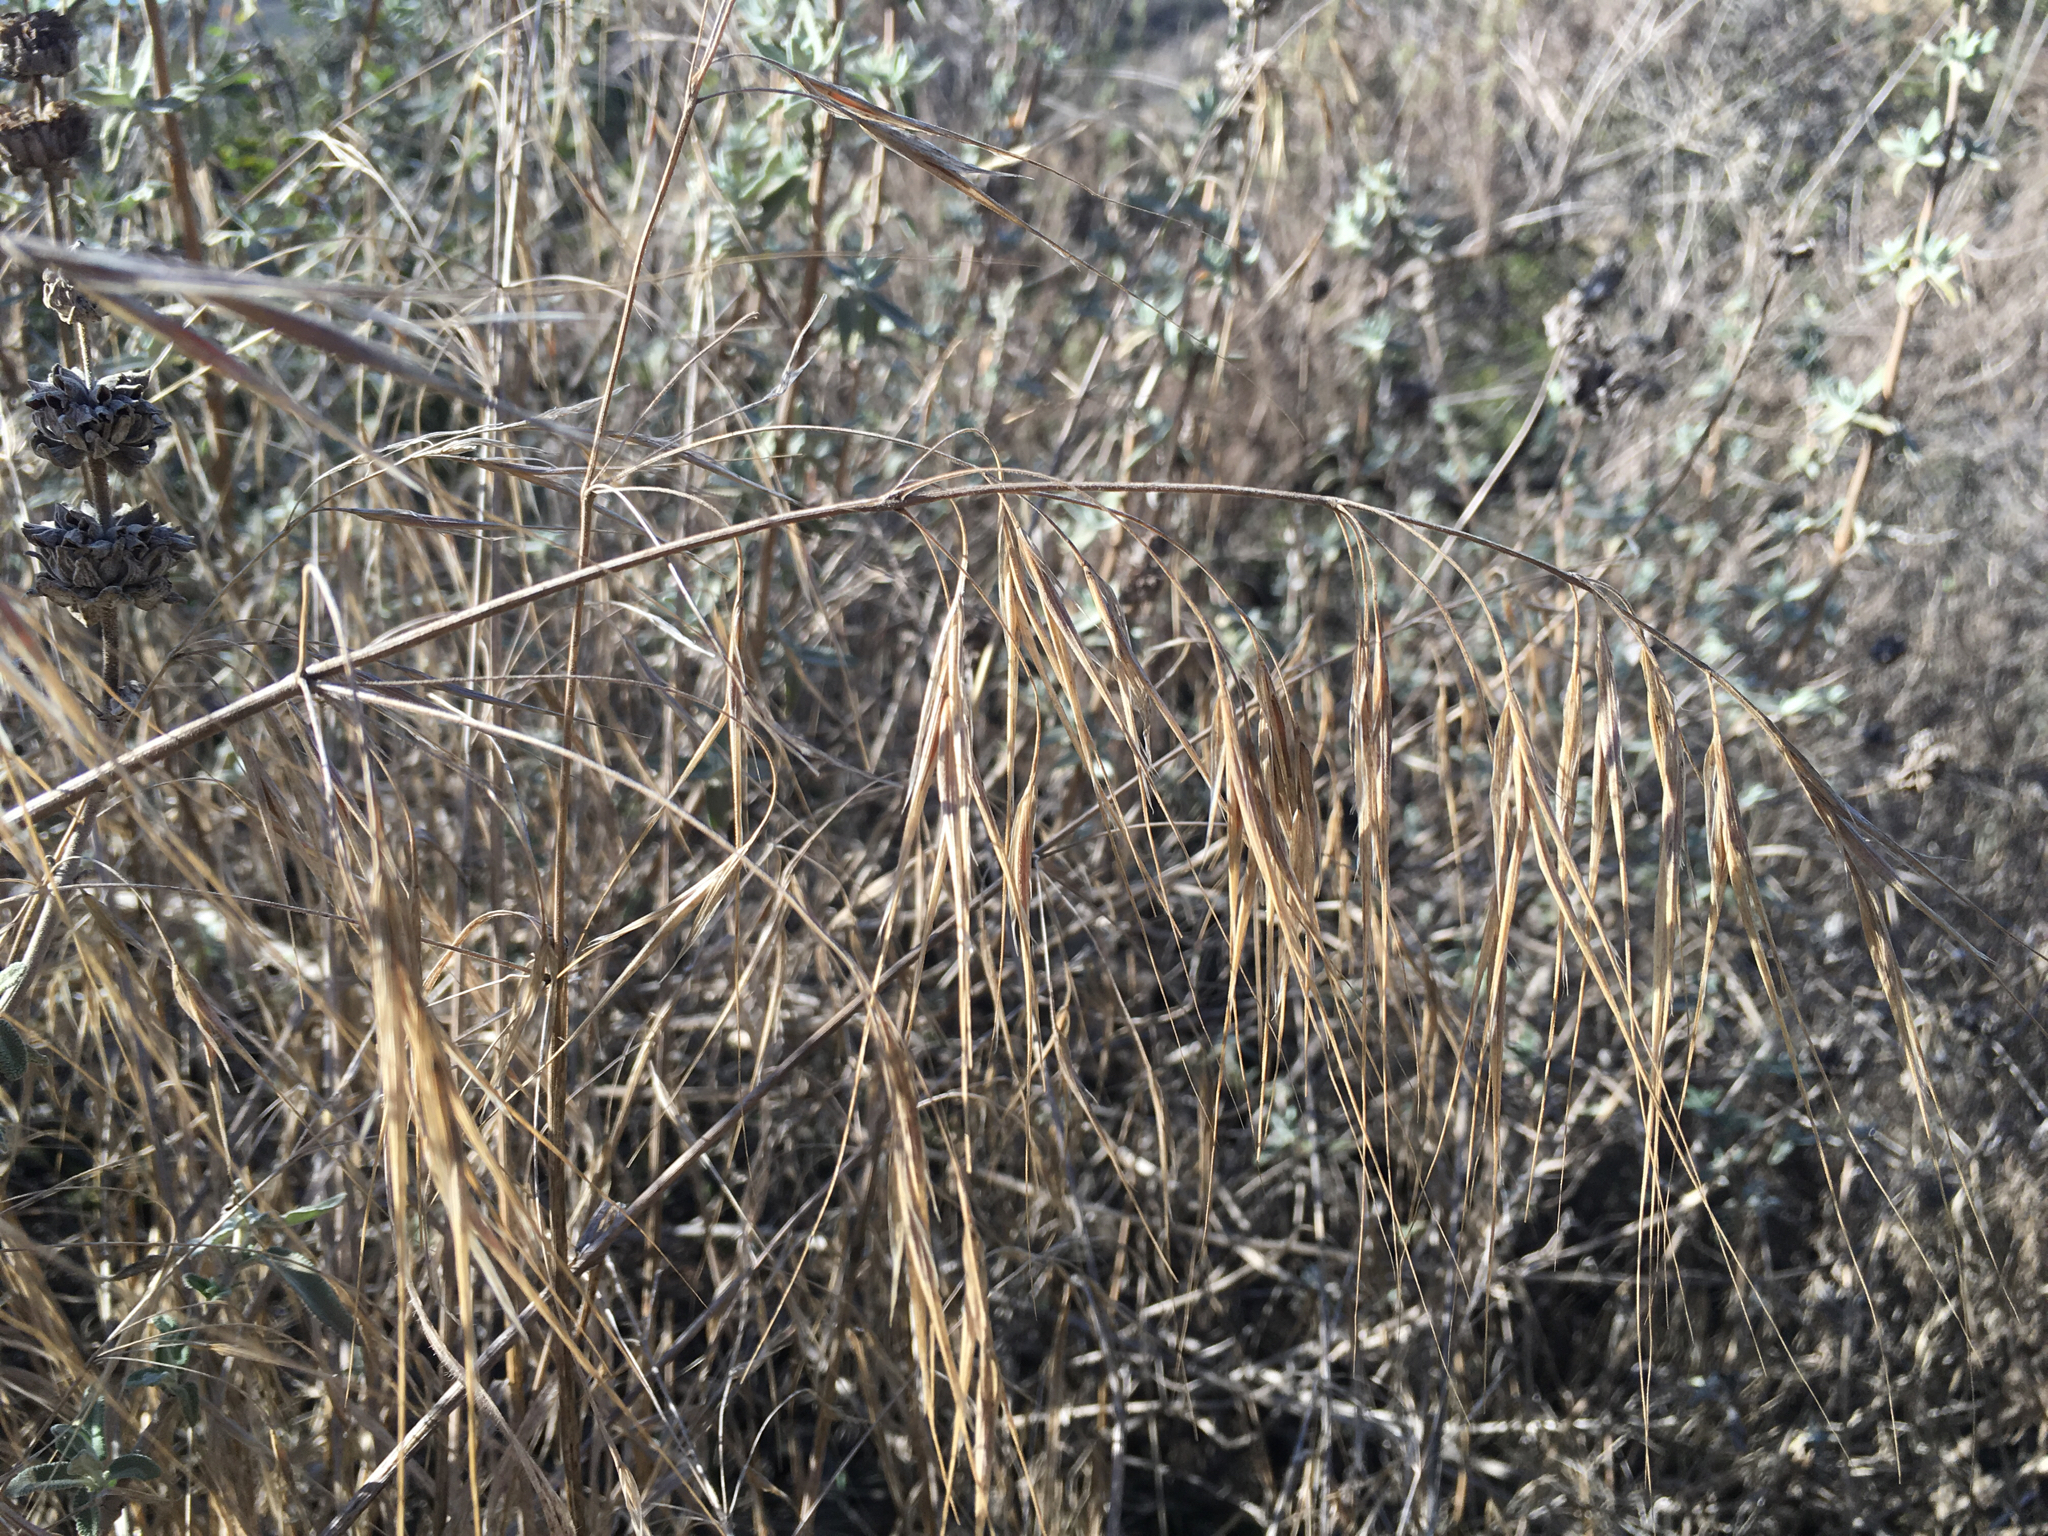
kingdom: Plantae
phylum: Tracheophyta
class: Liliopsida
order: Poales
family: Poaceae
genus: Bromus
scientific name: Bromus diandrus
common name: Ripgut brome
